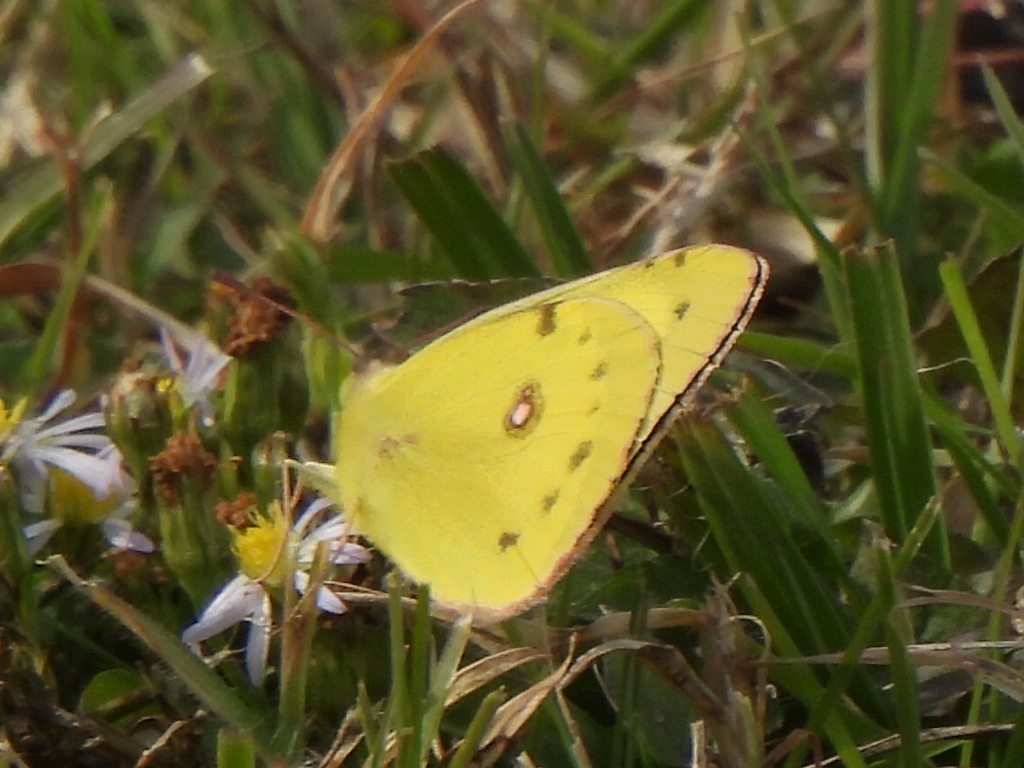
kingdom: Animalia
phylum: Arthropoda
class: Insecta
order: Lepidoptera
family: Pieridae
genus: Colias
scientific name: Colias eurytheme
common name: Alfalfa butterfly
